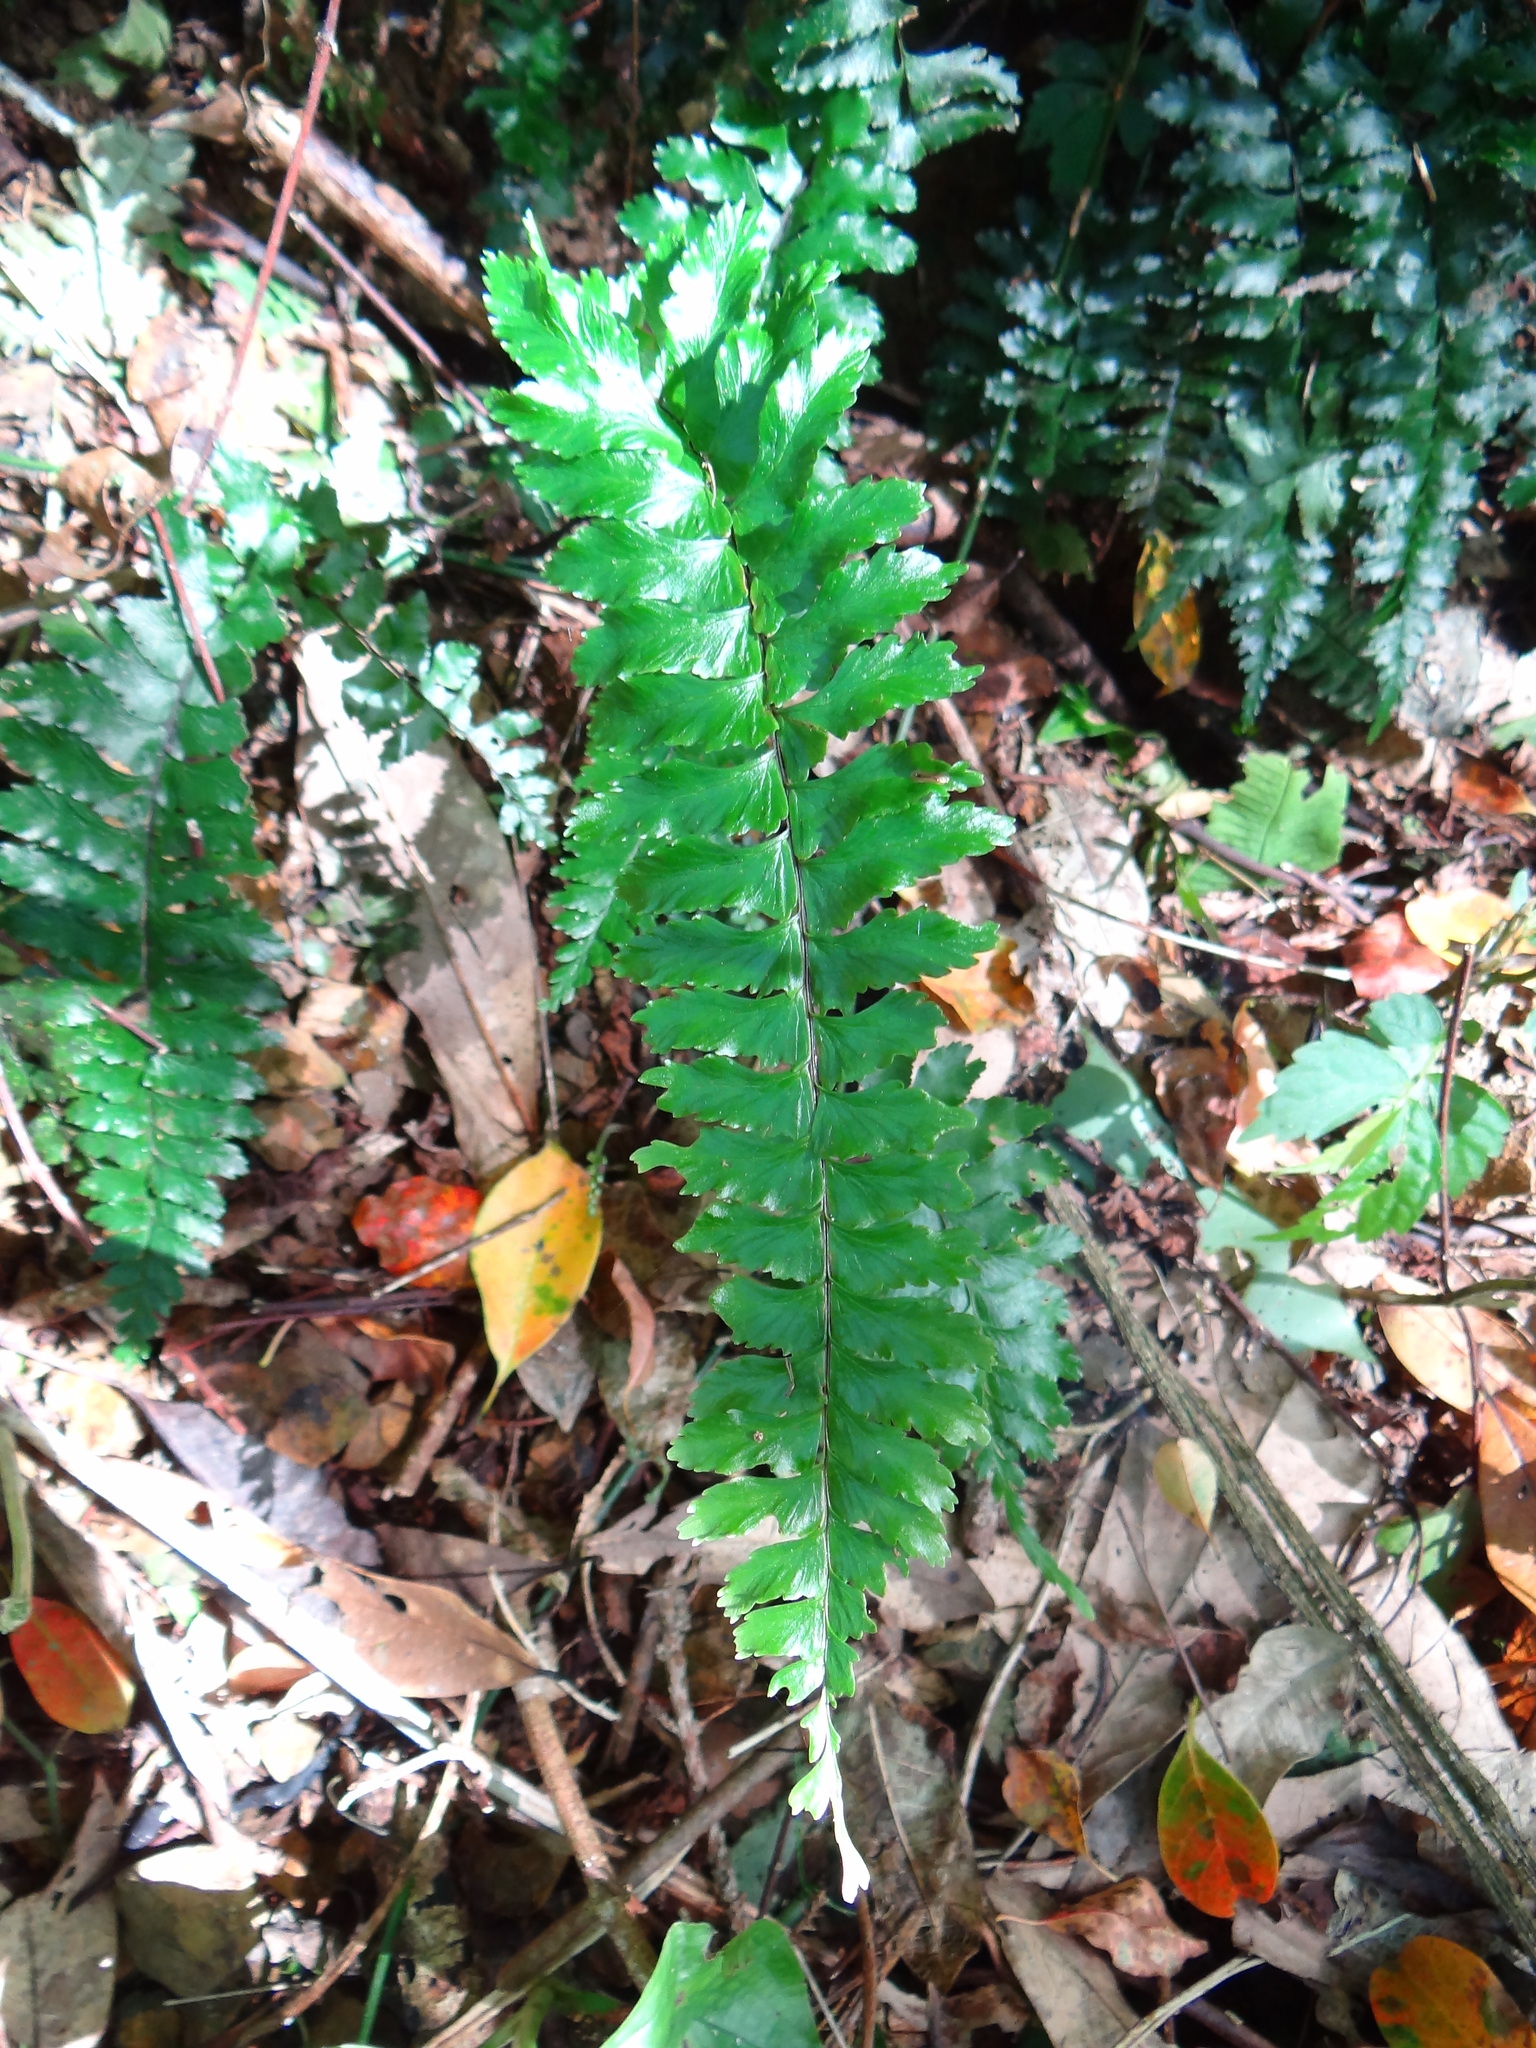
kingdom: Plantae
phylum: Tracheophyta
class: Polypodiopsida
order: Polypodiales
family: Aspleniaceae
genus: Hymenasplenium
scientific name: Hymenasplenium excisum
